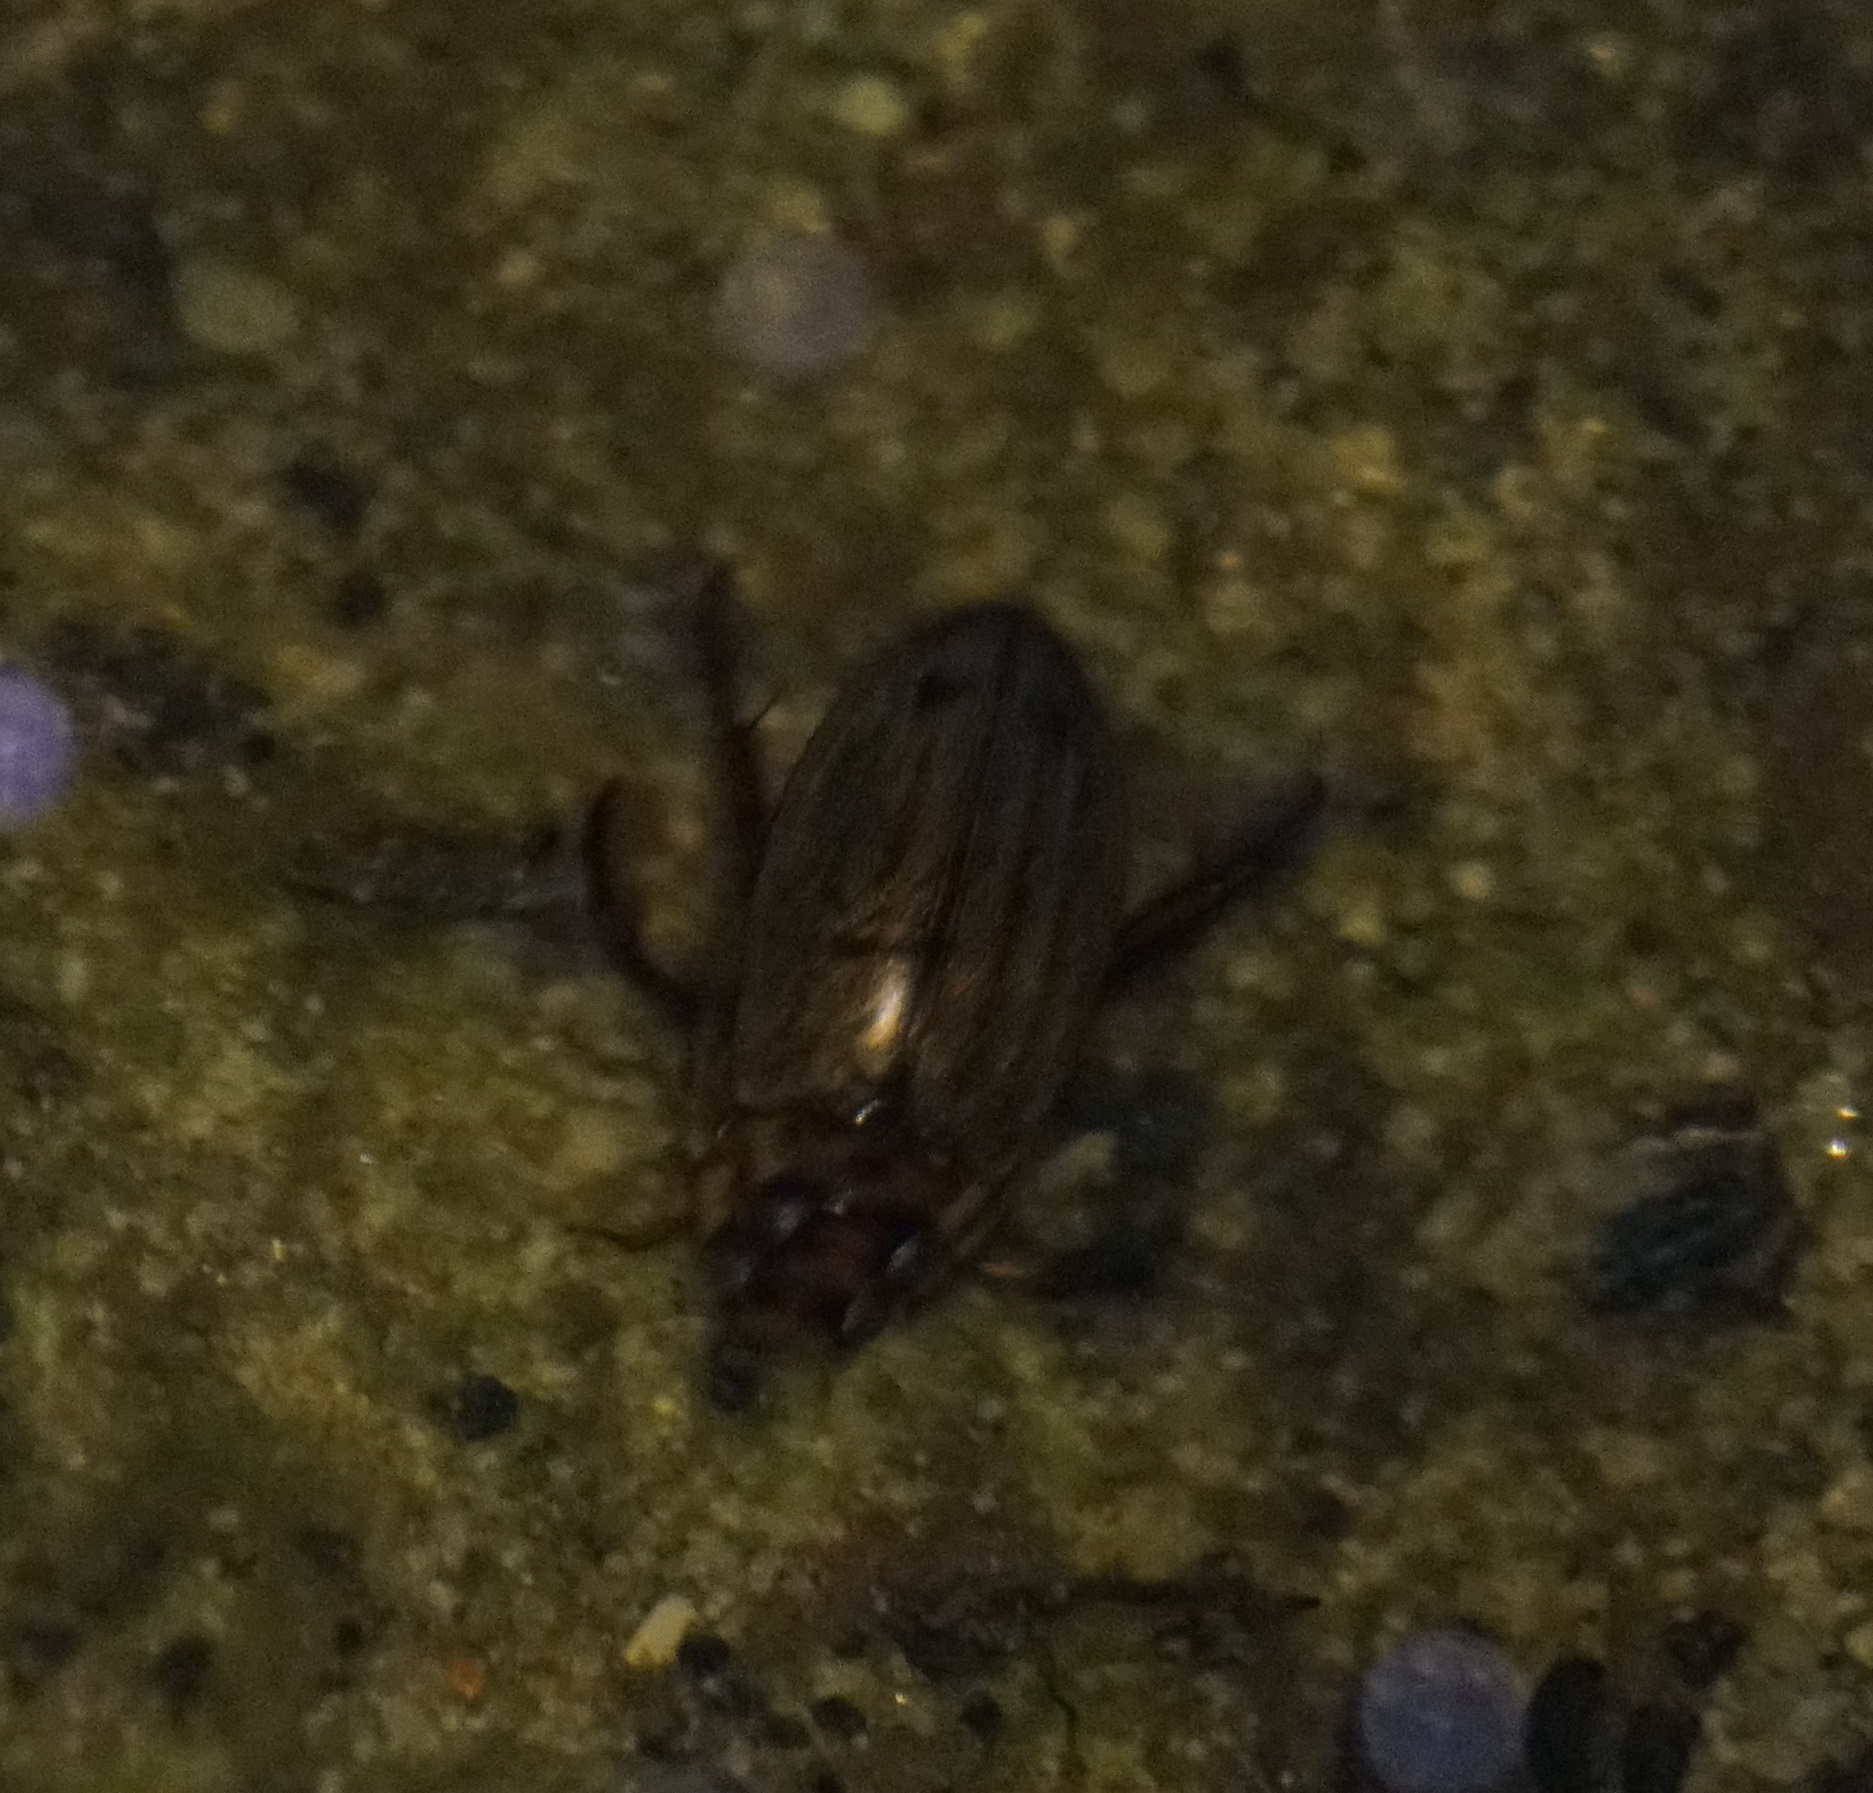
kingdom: Animalia
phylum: Arthropoda
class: Insecta
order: Coleoptera
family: Dytiscidae
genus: Rhantus
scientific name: Rhantus suturalis
